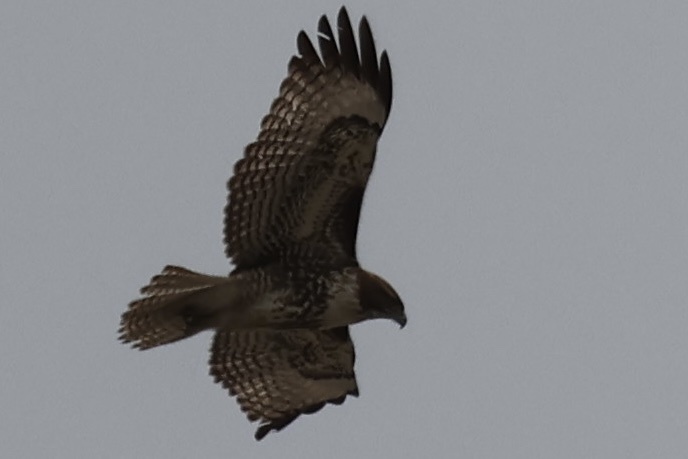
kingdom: Animalia
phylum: Chordata
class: Aves
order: Accipitriformes
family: Accipitridae
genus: Buteo
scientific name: Buteo jamaicensis
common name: Red-tailed hawk
